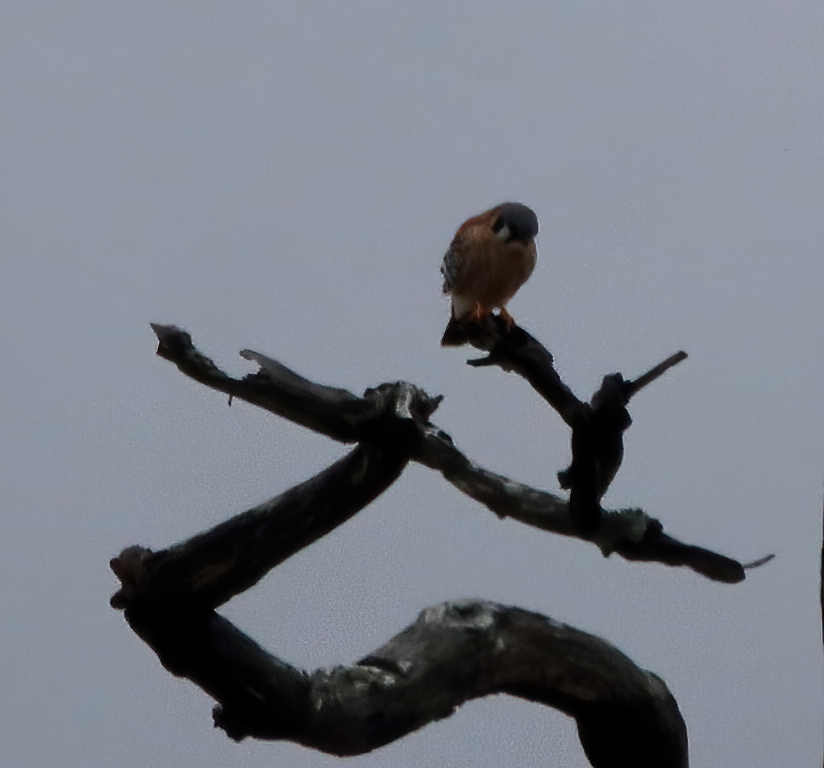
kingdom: Animalia
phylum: Chordata
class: Aves
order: Falconiformes
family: Falconidae
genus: Falco
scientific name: Falco sparverius
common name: American kestrel
